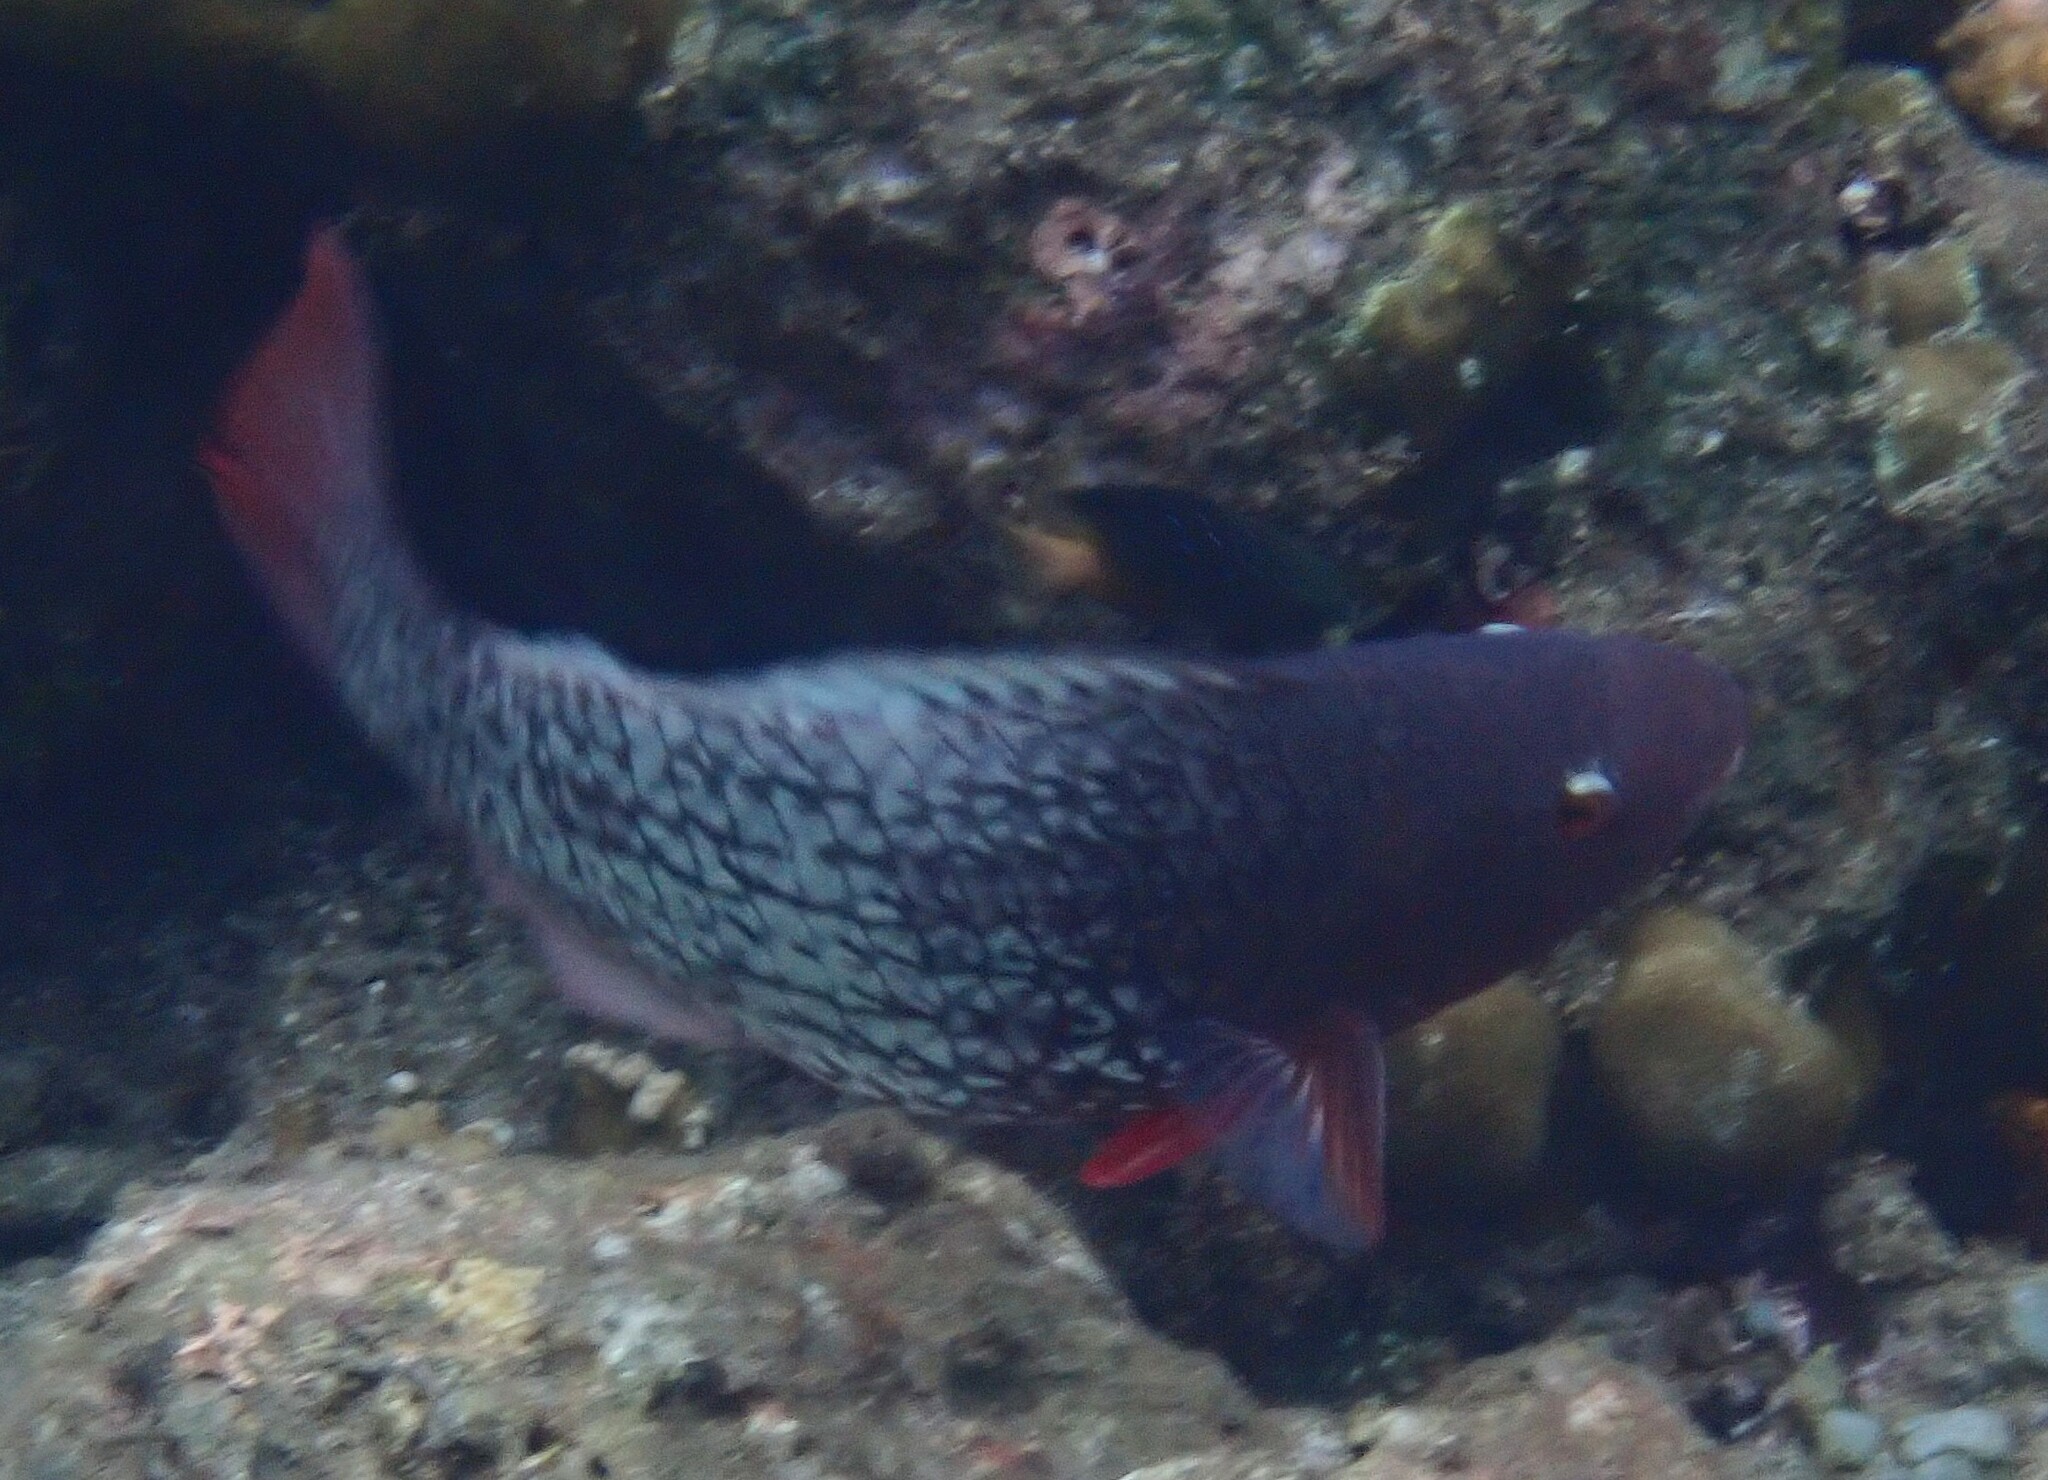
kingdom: Animalia
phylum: Chordata
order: Perciformes
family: Scaridae
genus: Scarus
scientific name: Scarus rubroviolaceus
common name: Ember parrotfish
